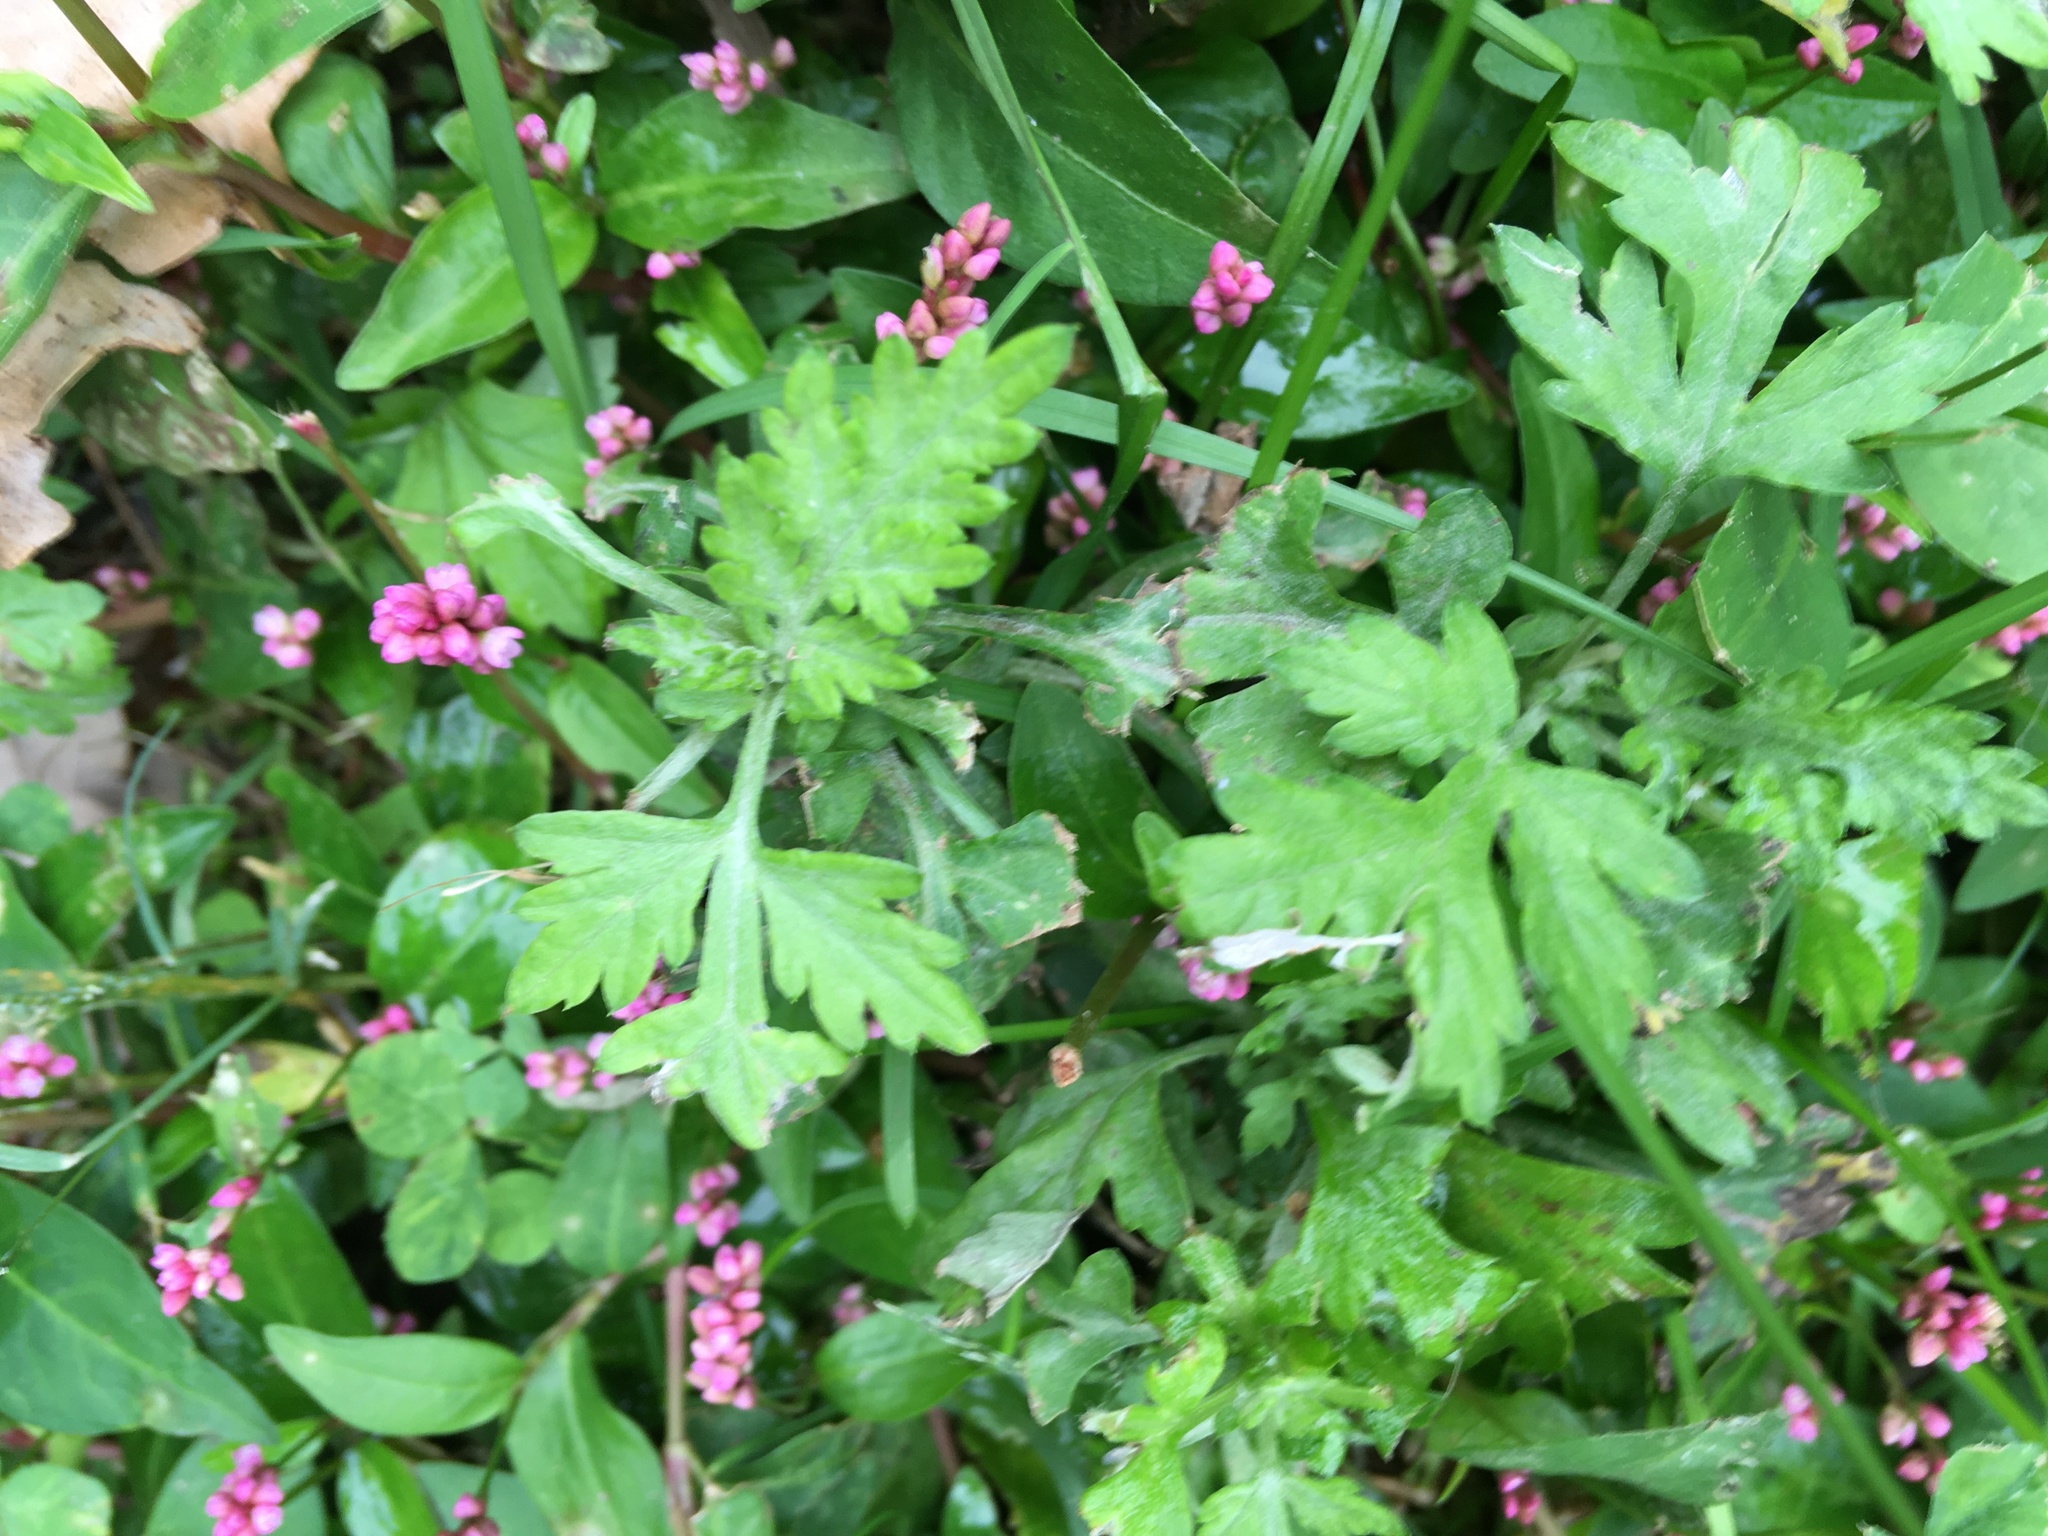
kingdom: Plantae
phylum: Tracheophyta
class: Magnoliopsida
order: Asterales
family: Asteraceae
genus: Artemisia
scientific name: Artemisia vulgaris
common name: Mugwort
